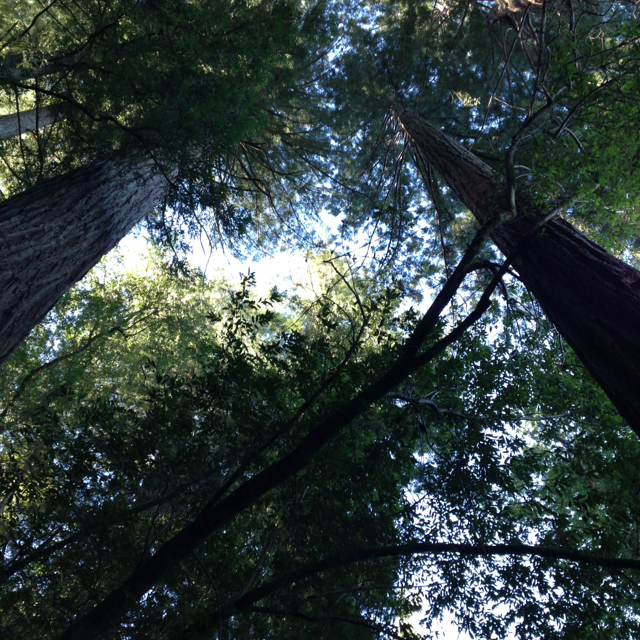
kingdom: Plantae
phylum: Tracheophyta
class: Pinopsida
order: Pinales
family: Cupressaceae
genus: Sequoia
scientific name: Sequoia sempervirens
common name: Coast redwood
